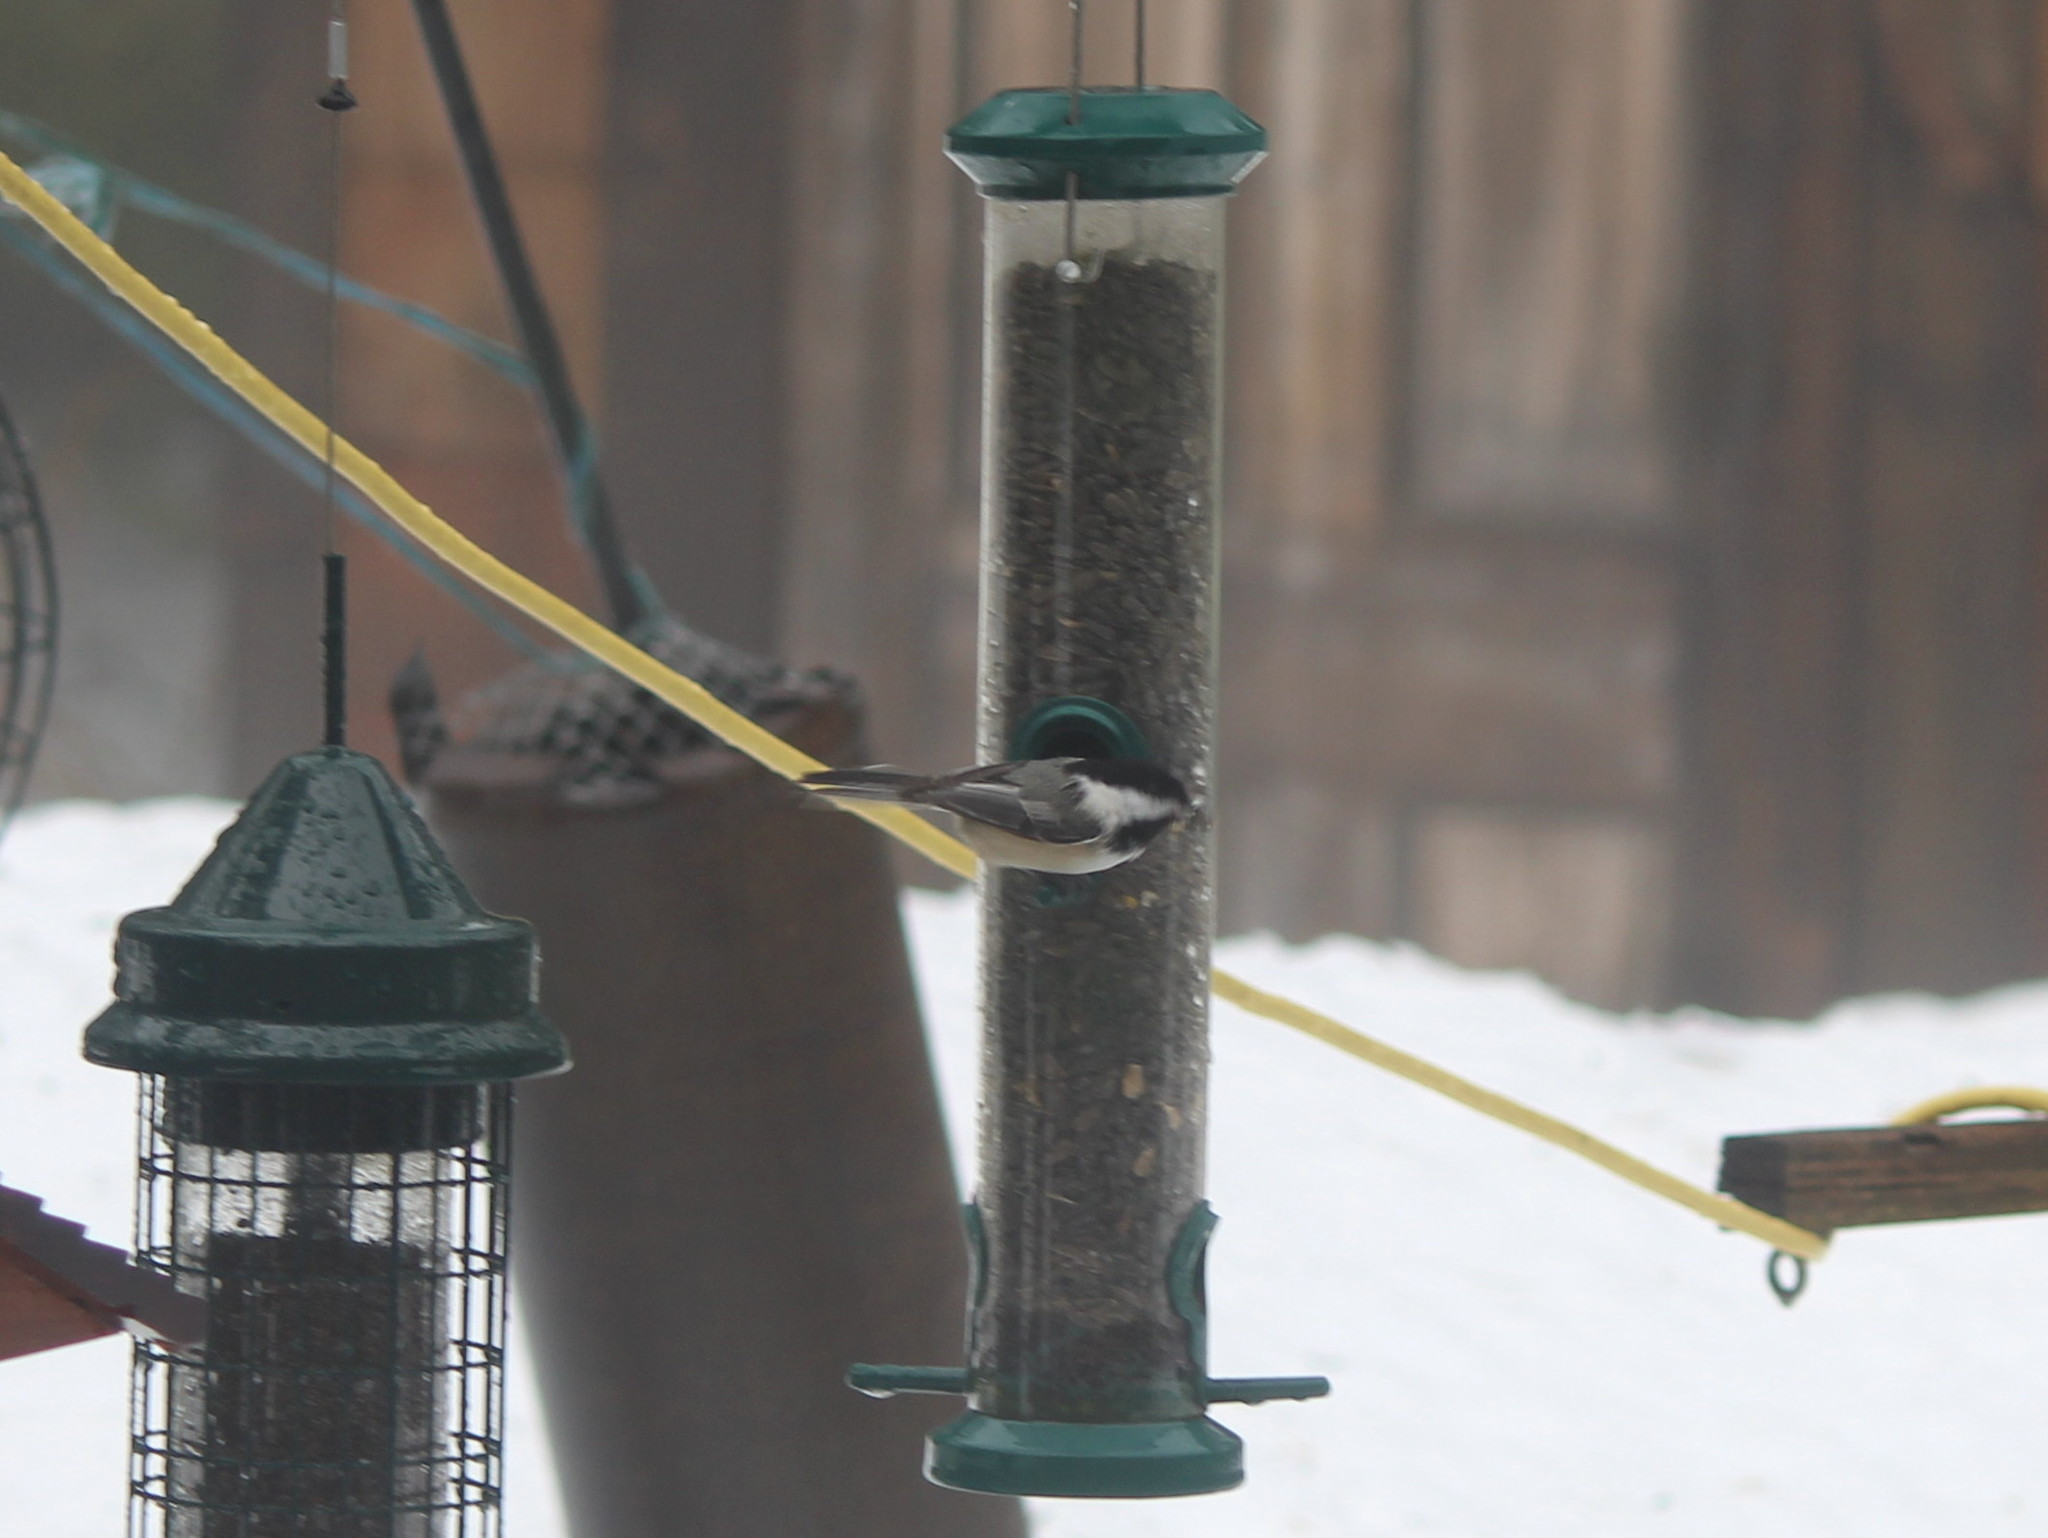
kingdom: Animalia
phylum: Chordata
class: Aves
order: Passeriformes
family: Paridae
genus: Poecile
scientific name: Poecile atricapillus
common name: Black-capped chickadee
